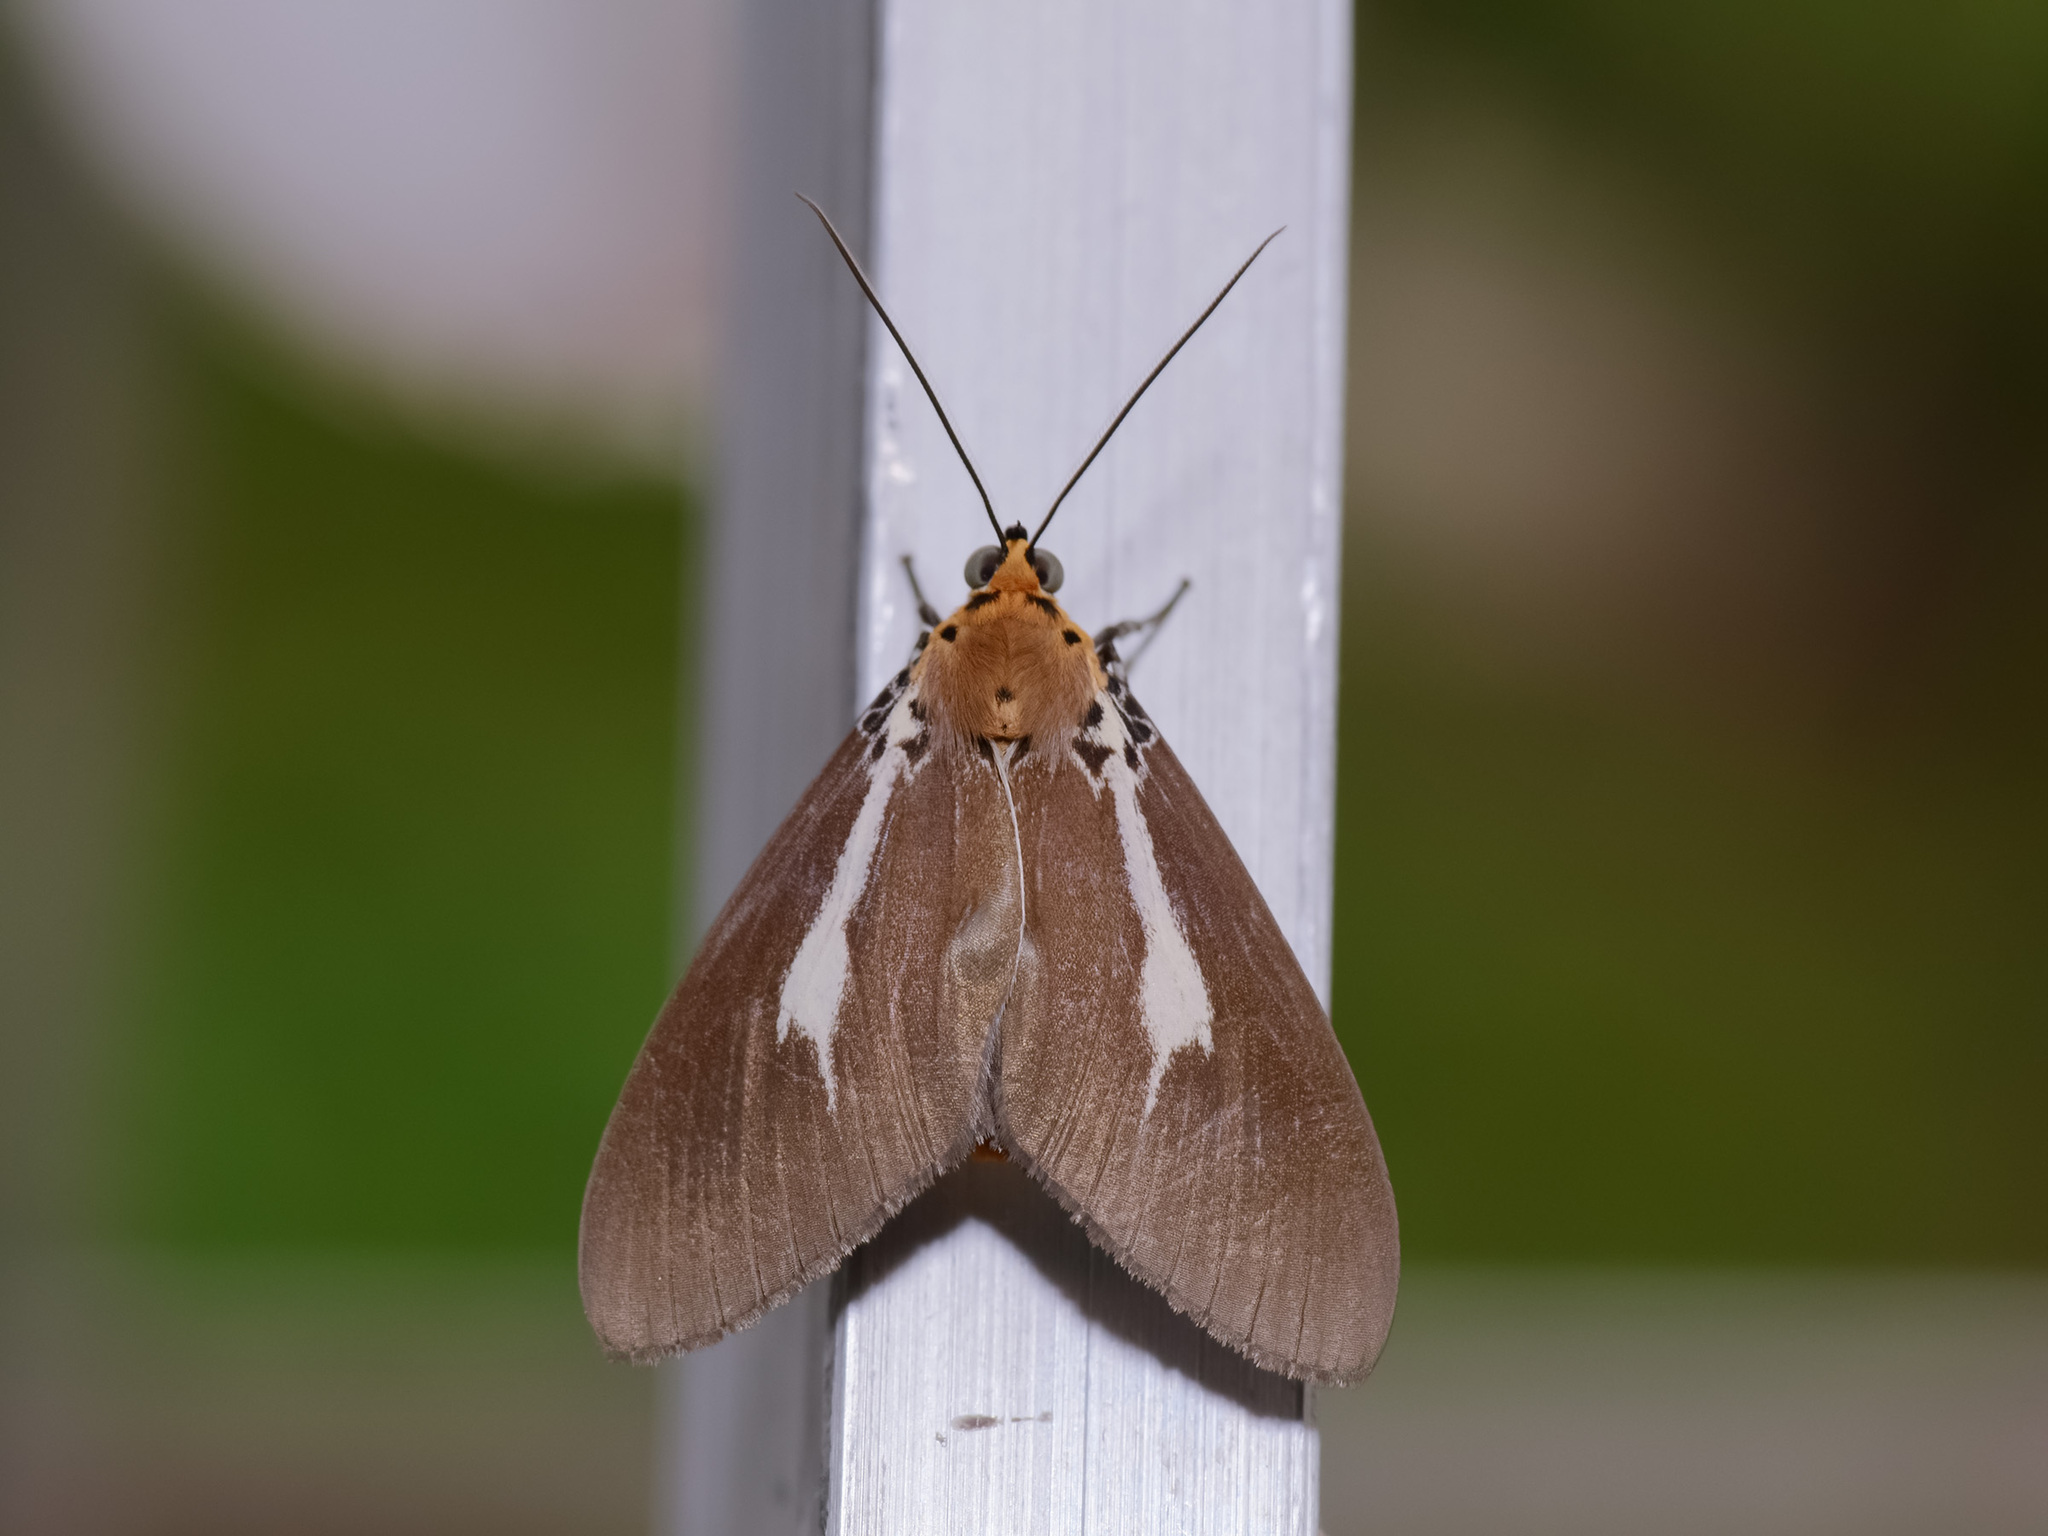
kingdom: Animalia
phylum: Arthropoda
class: Insecta
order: Lepidoptera
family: Erebidae
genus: Asota
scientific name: Asota heliconia
